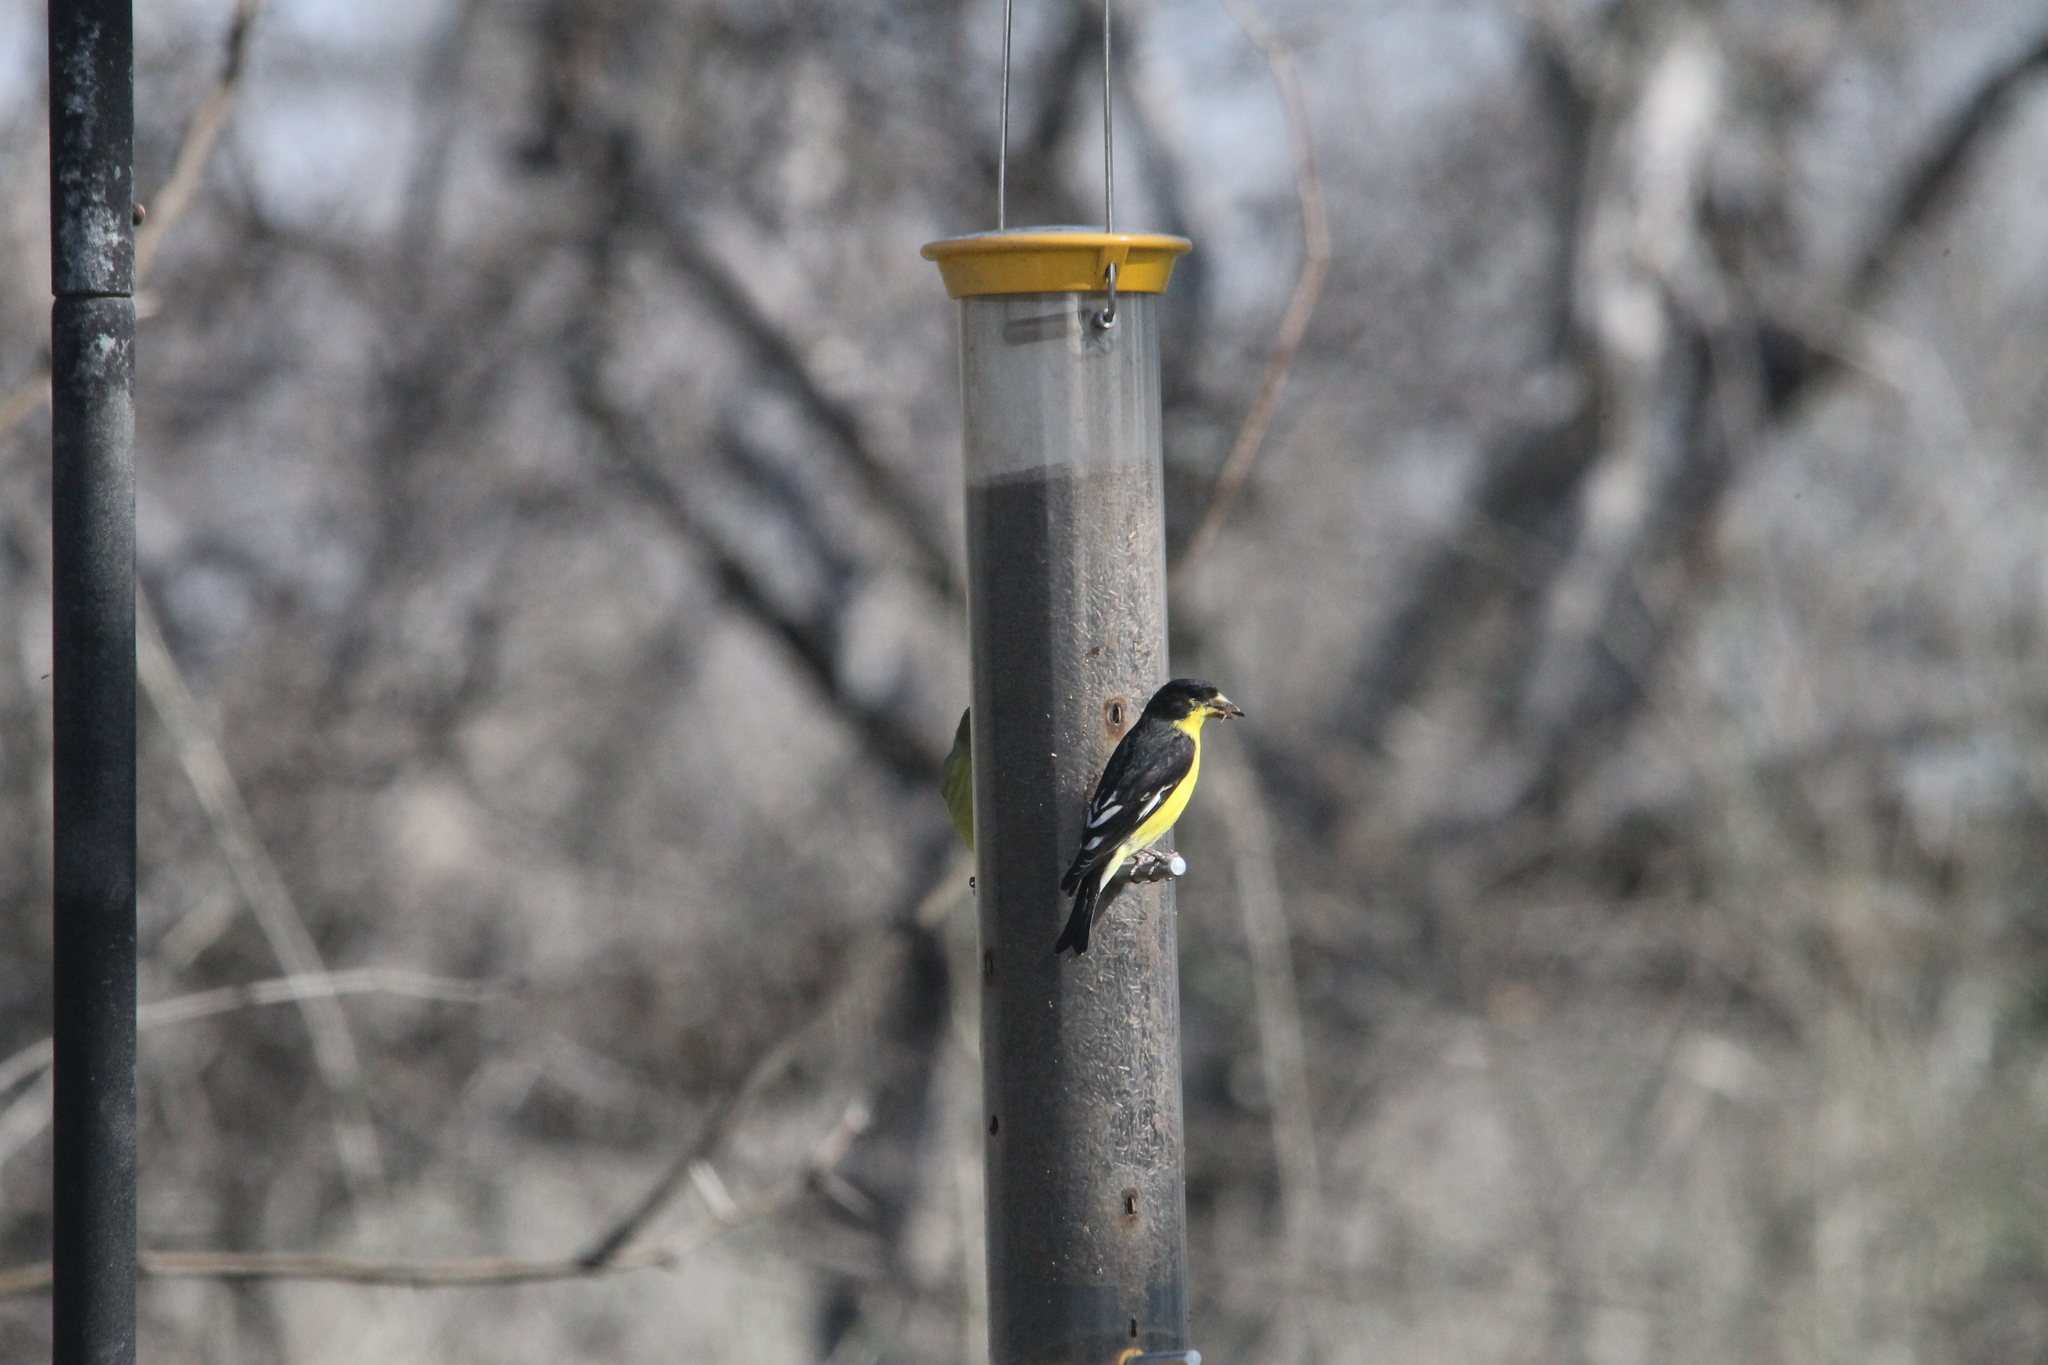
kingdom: Animalia
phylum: Chordata
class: Aves
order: Passeriformes
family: Fringillidae
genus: Spinus
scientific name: Spinus psaltria
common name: Lesser goldfinch
